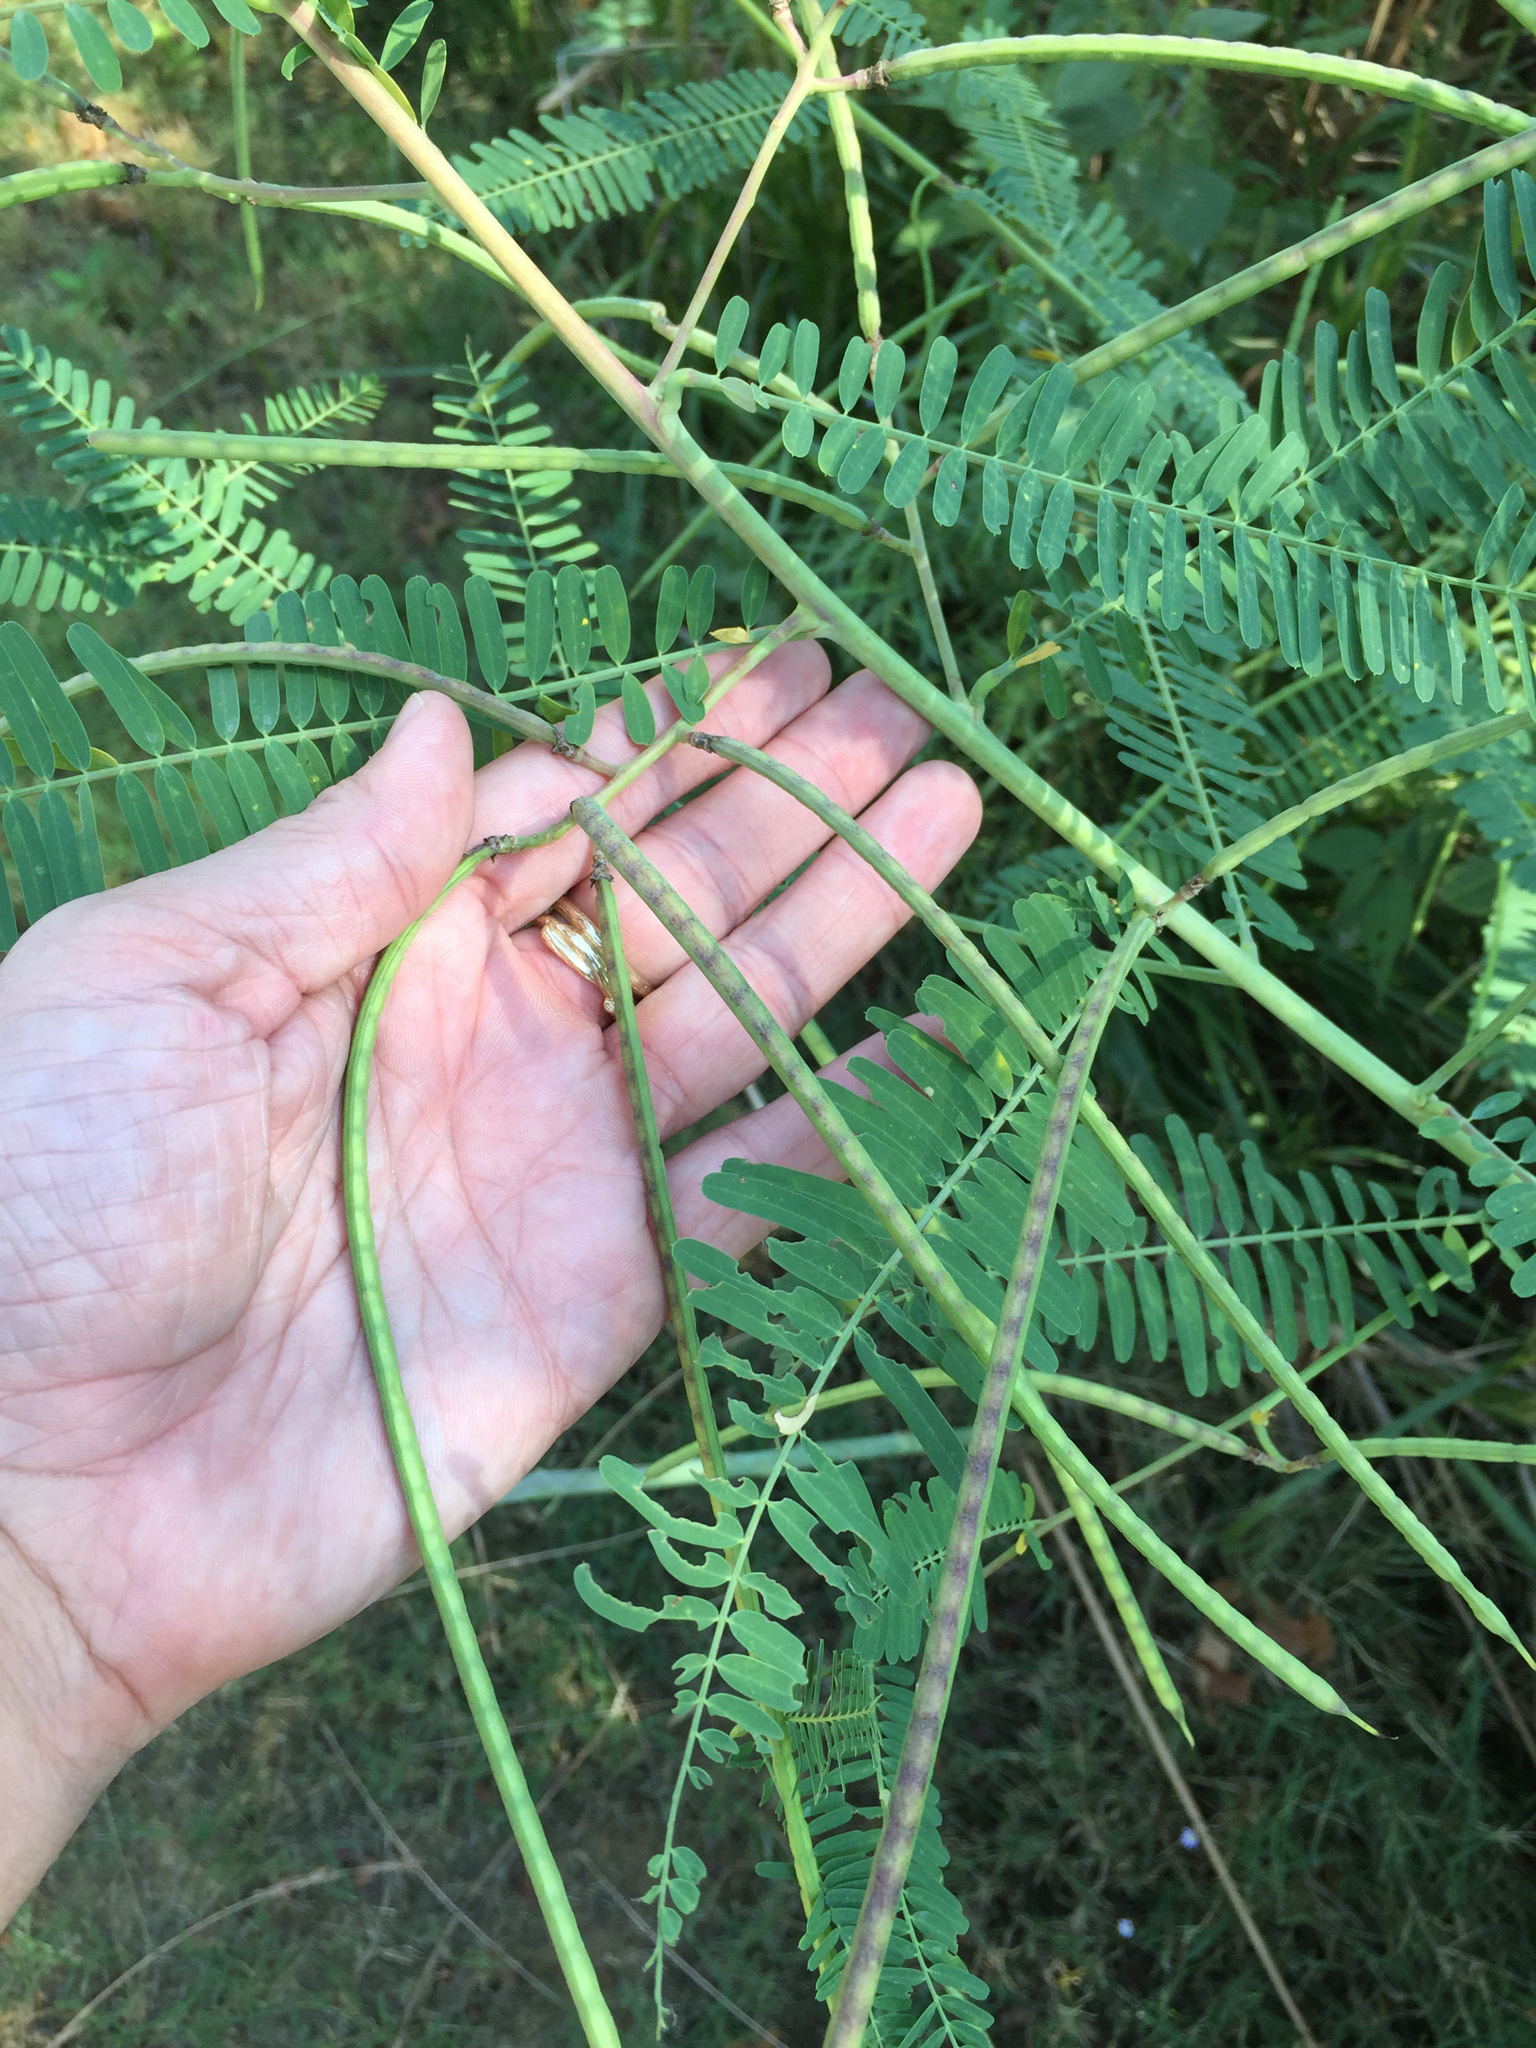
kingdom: Plantae
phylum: Tracheophyta
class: Magnoliopsida
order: Fabales
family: Fabaceae
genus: Sesbania
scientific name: Sesbania herbacea
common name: Bigpod sesbania
